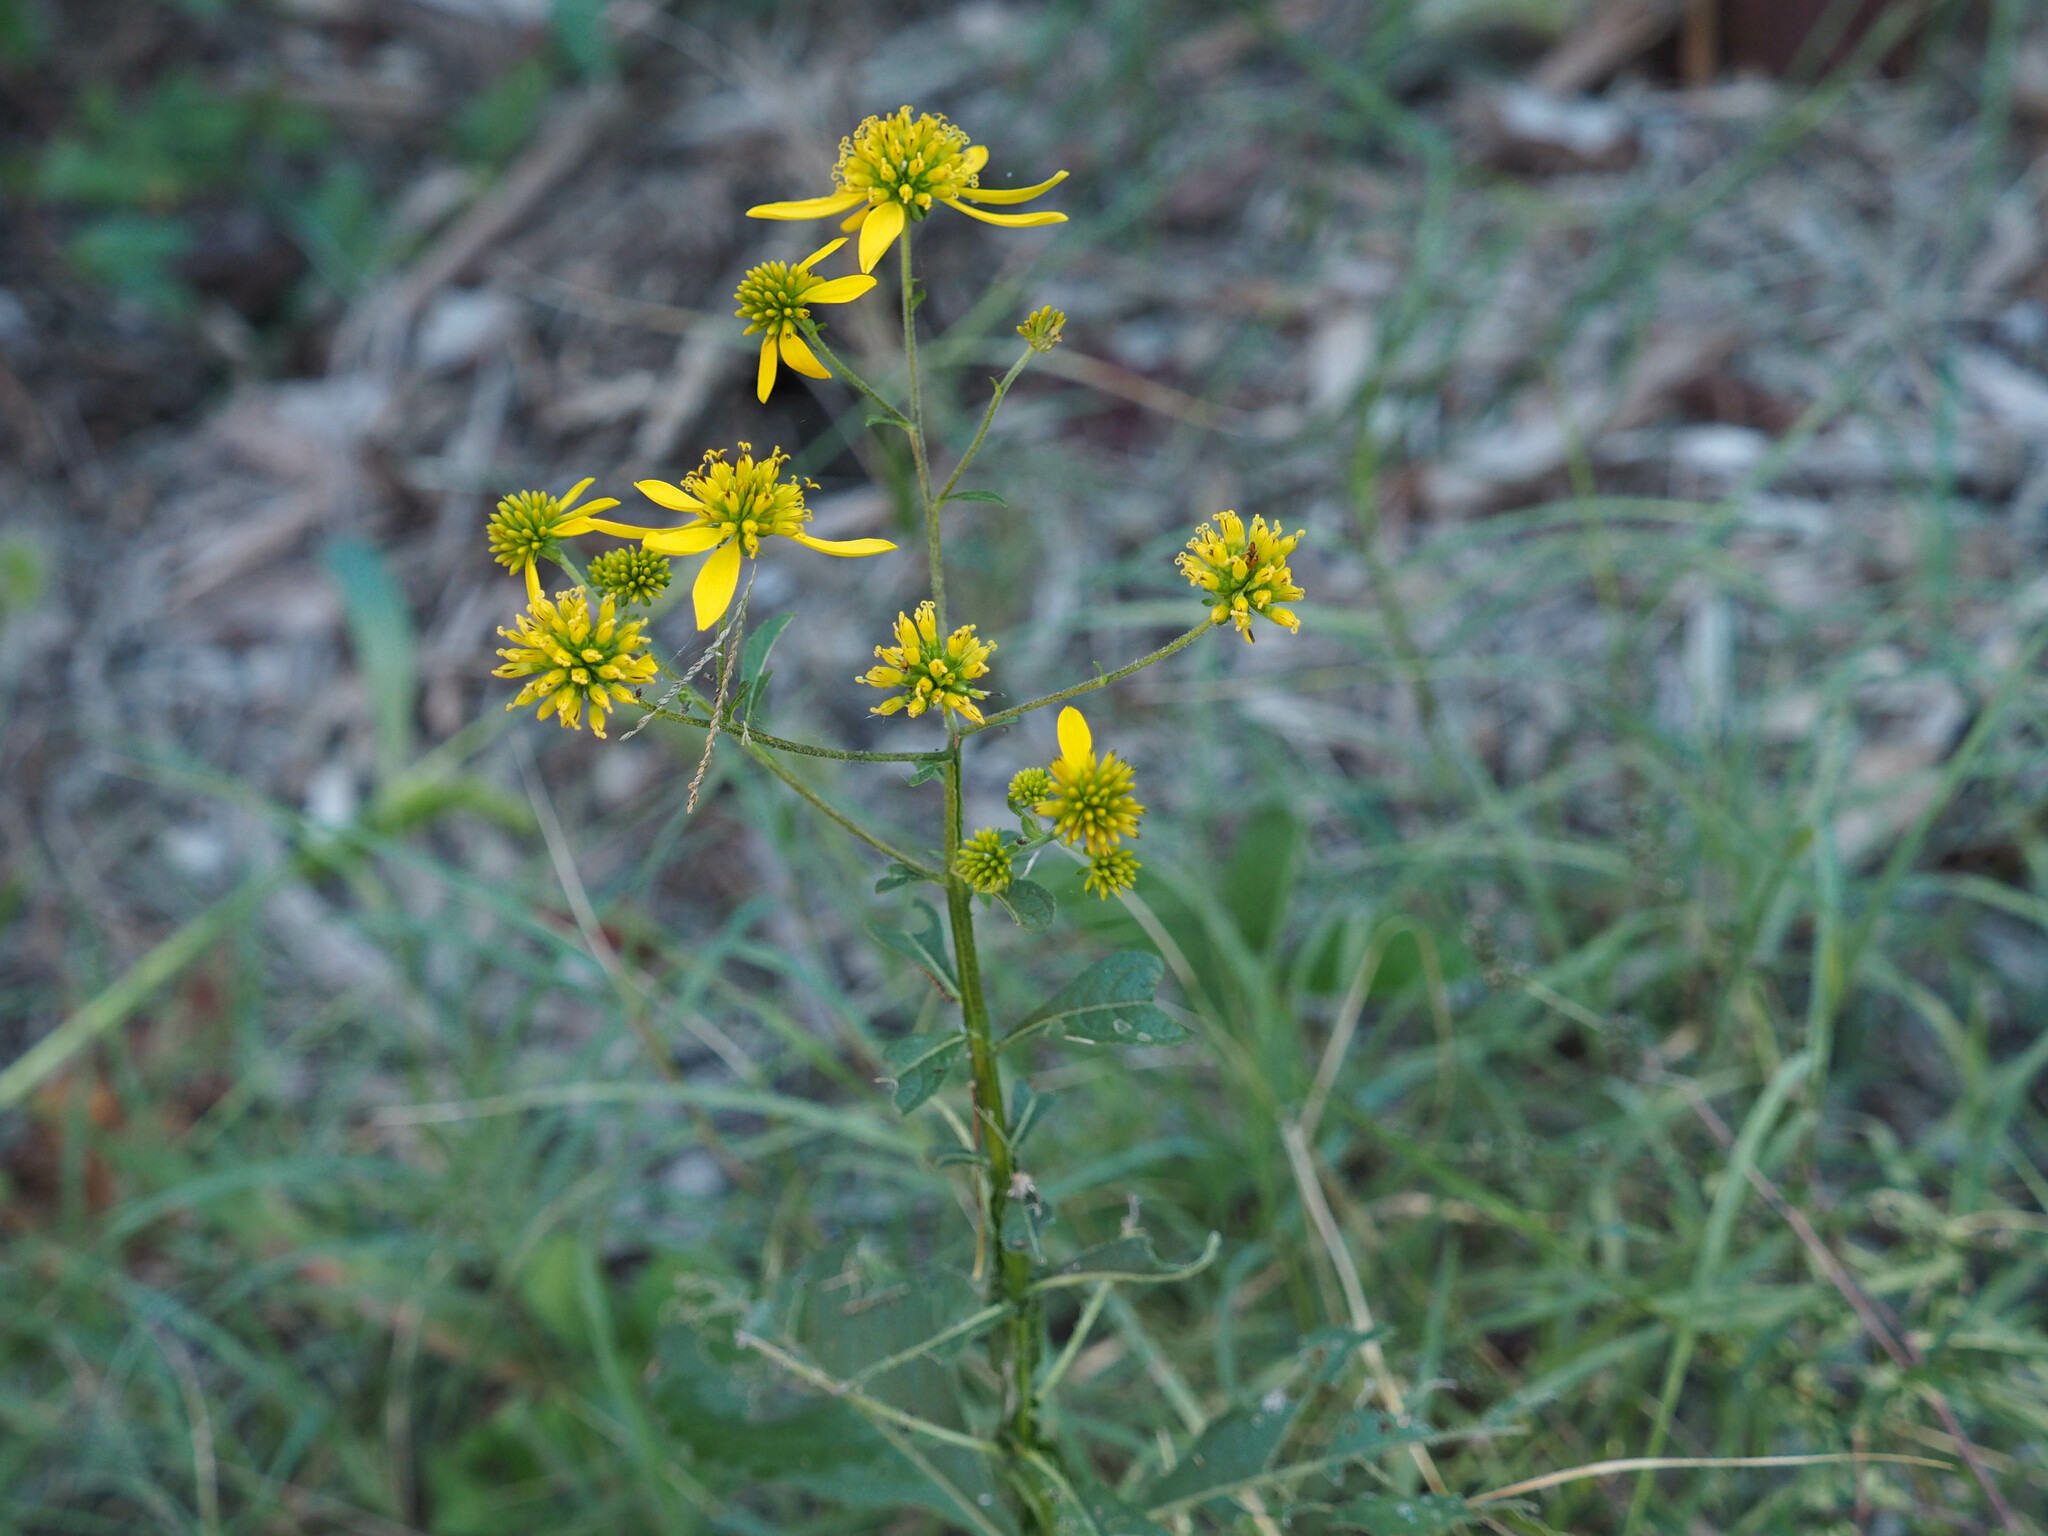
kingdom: Plantae
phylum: Tracheophyta
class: Magnoliopsida
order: Asterales
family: Asteraceae
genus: Verbesina
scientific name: Verbesina alternifolia
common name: Wingstem
